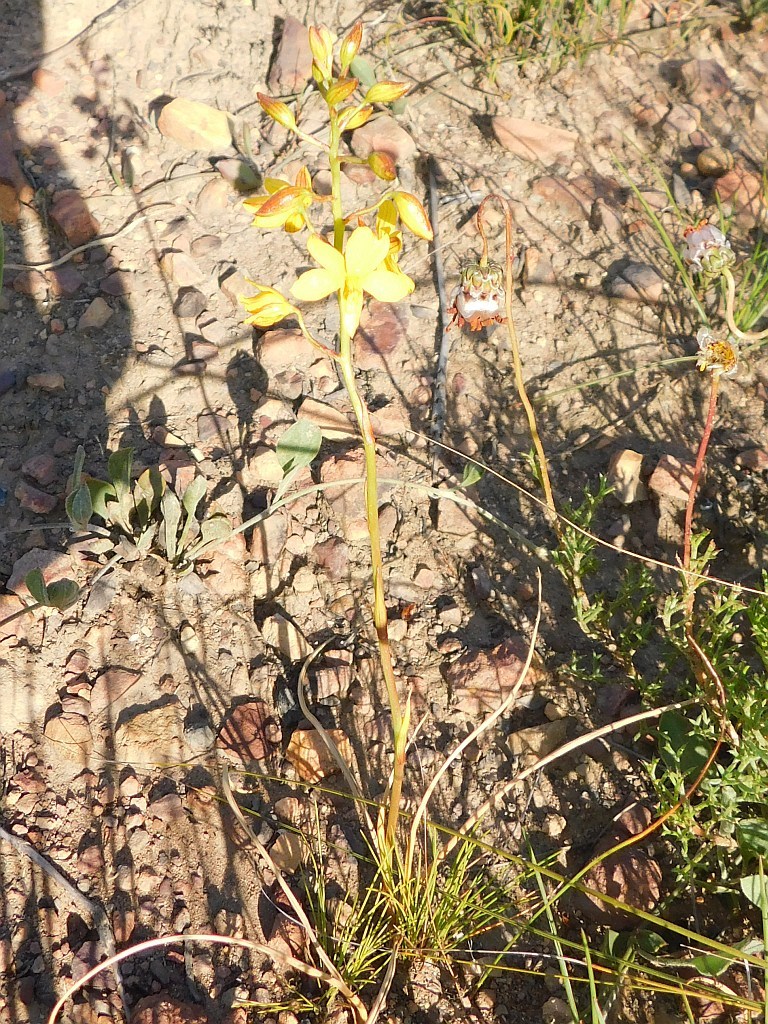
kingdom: Plantae
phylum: Tracheophyta
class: Liliopsida
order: Asparagales
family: Tecophilaeaceae
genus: Cyanella
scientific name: Cyanella lutea
